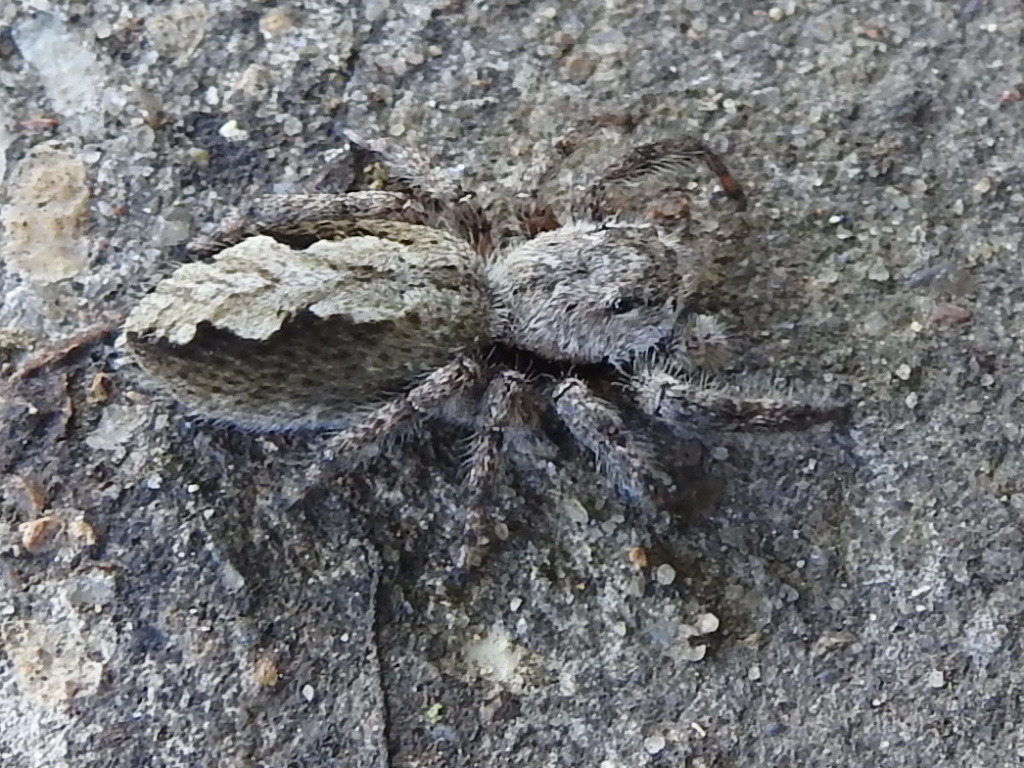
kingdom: Animalia
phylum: Arthropoda
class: Arachnida
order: Araneae
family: Salticidae
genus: Platycryptus
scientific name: Platycryptus undatus
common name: Tan jumping spider
